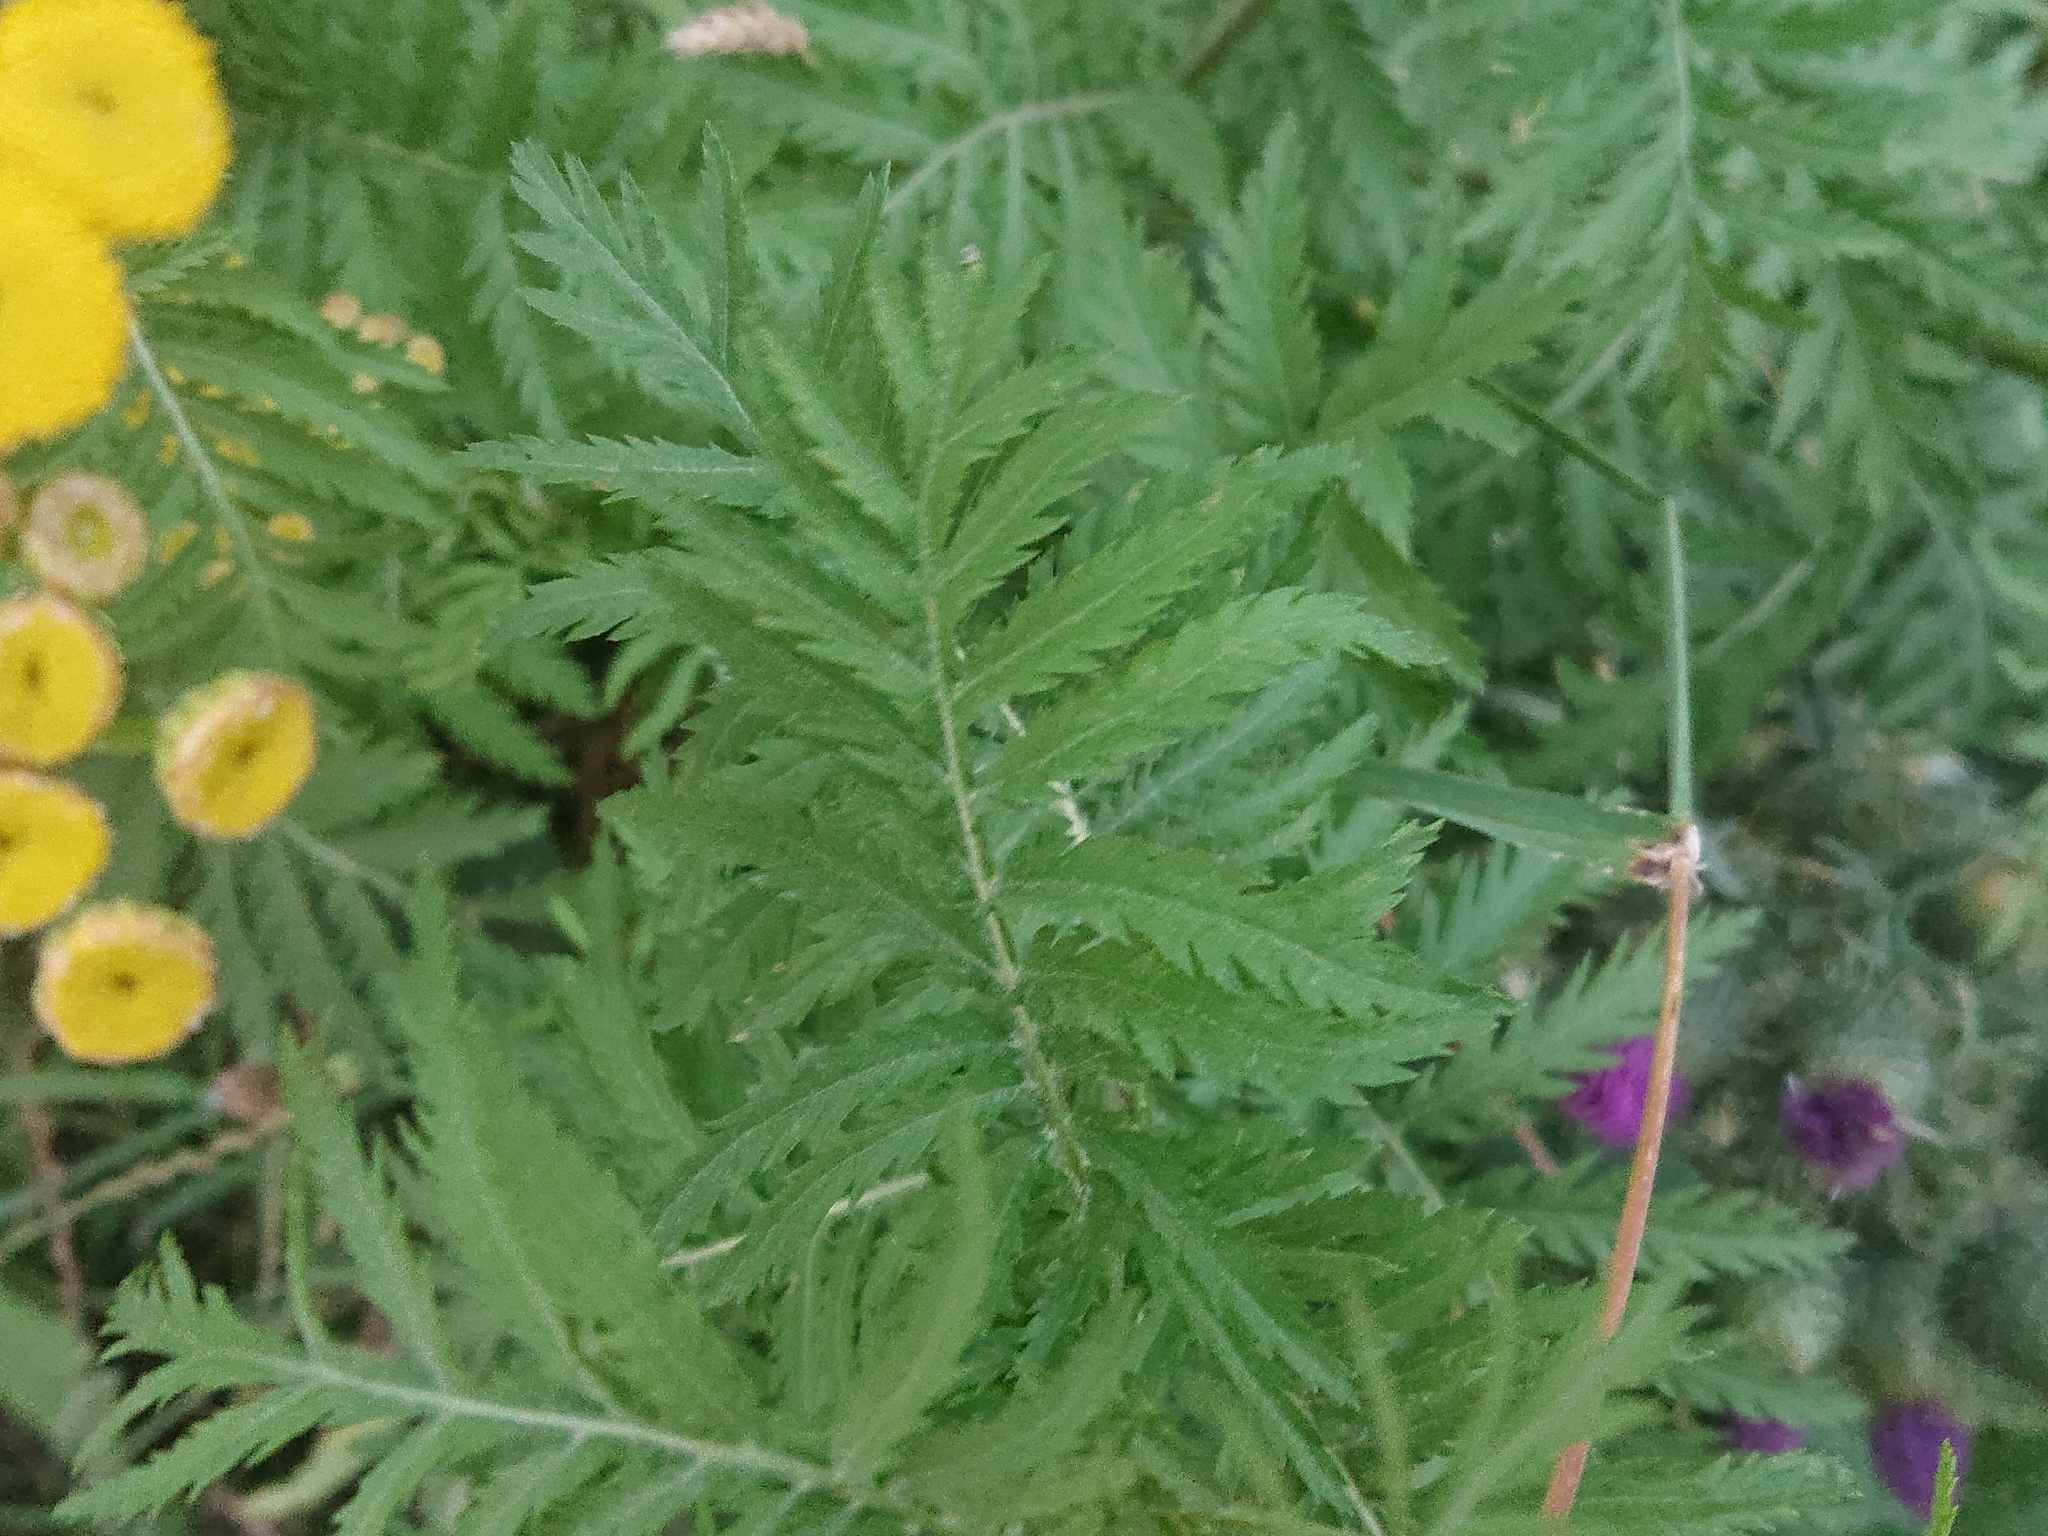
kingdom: Plantae
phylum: Tracheophyta
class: Magnoliopsida
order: Asterales
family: Asteraceae
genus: Tanacetum
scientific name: Tanacetum vulgare
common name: Common tansy
